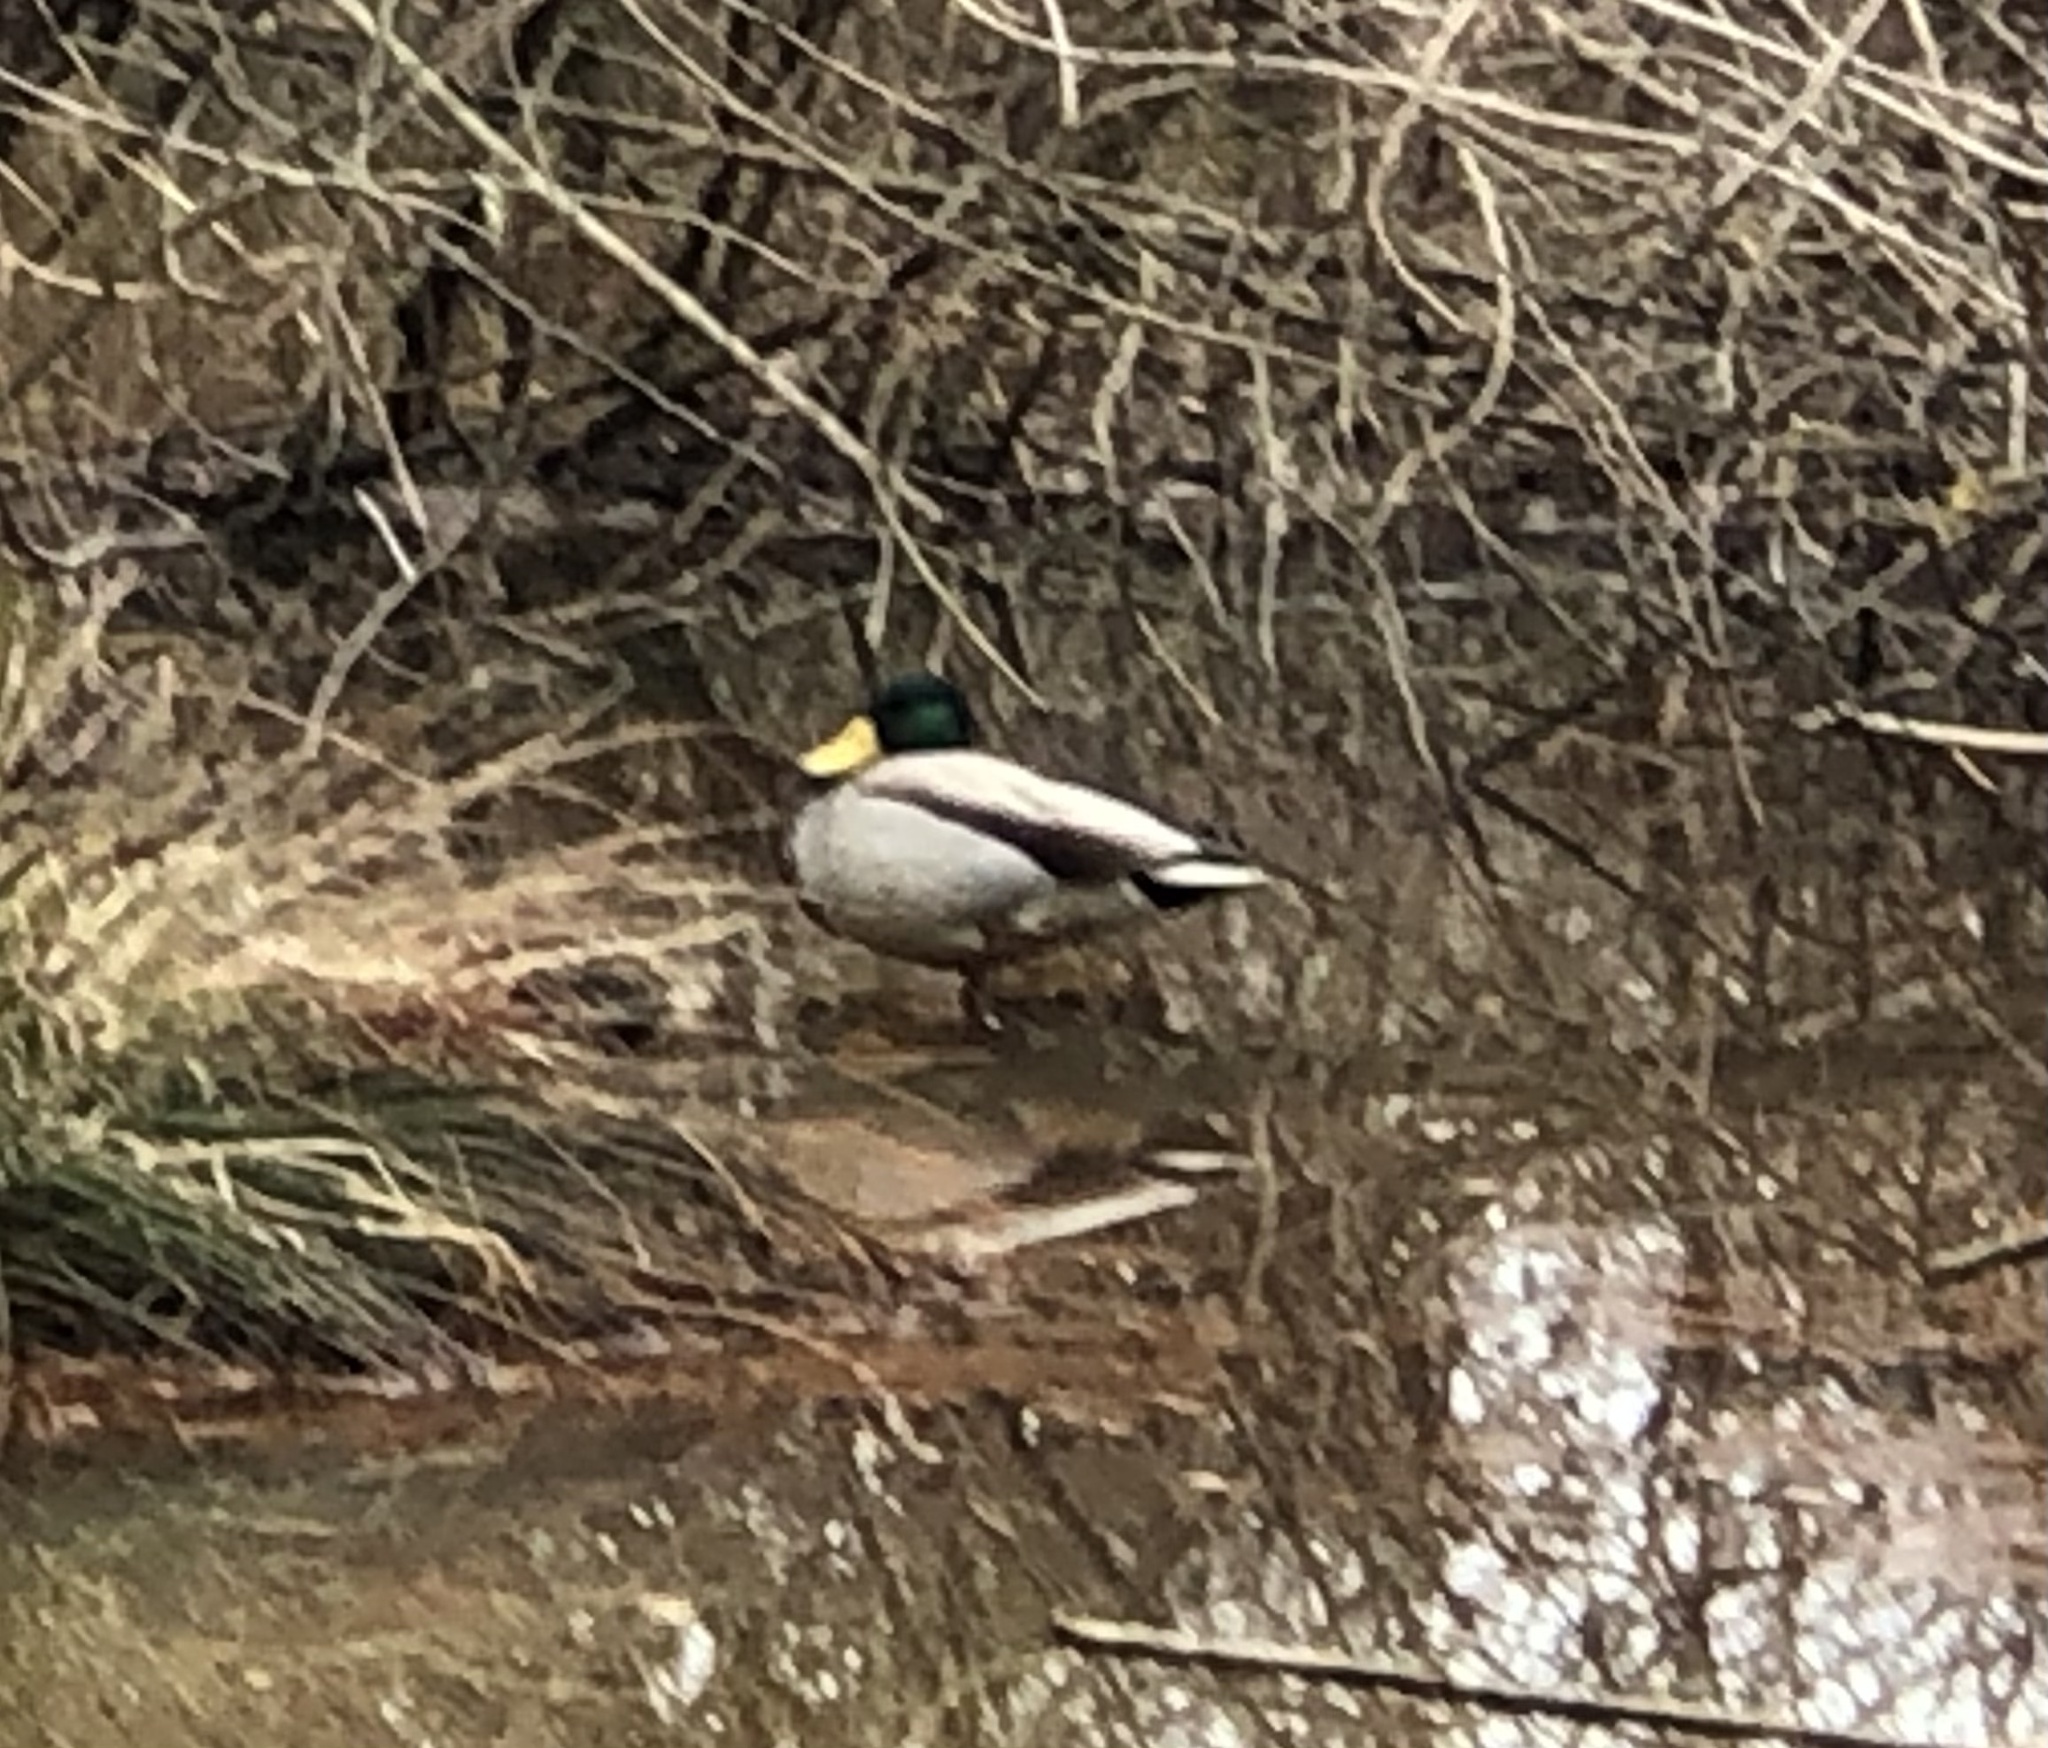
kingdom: Animalia
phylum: Chordata
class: Aves
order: Anseriformes
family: Anatidae
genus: Anas
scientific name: Anas platyrhynchos
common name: Mallard
